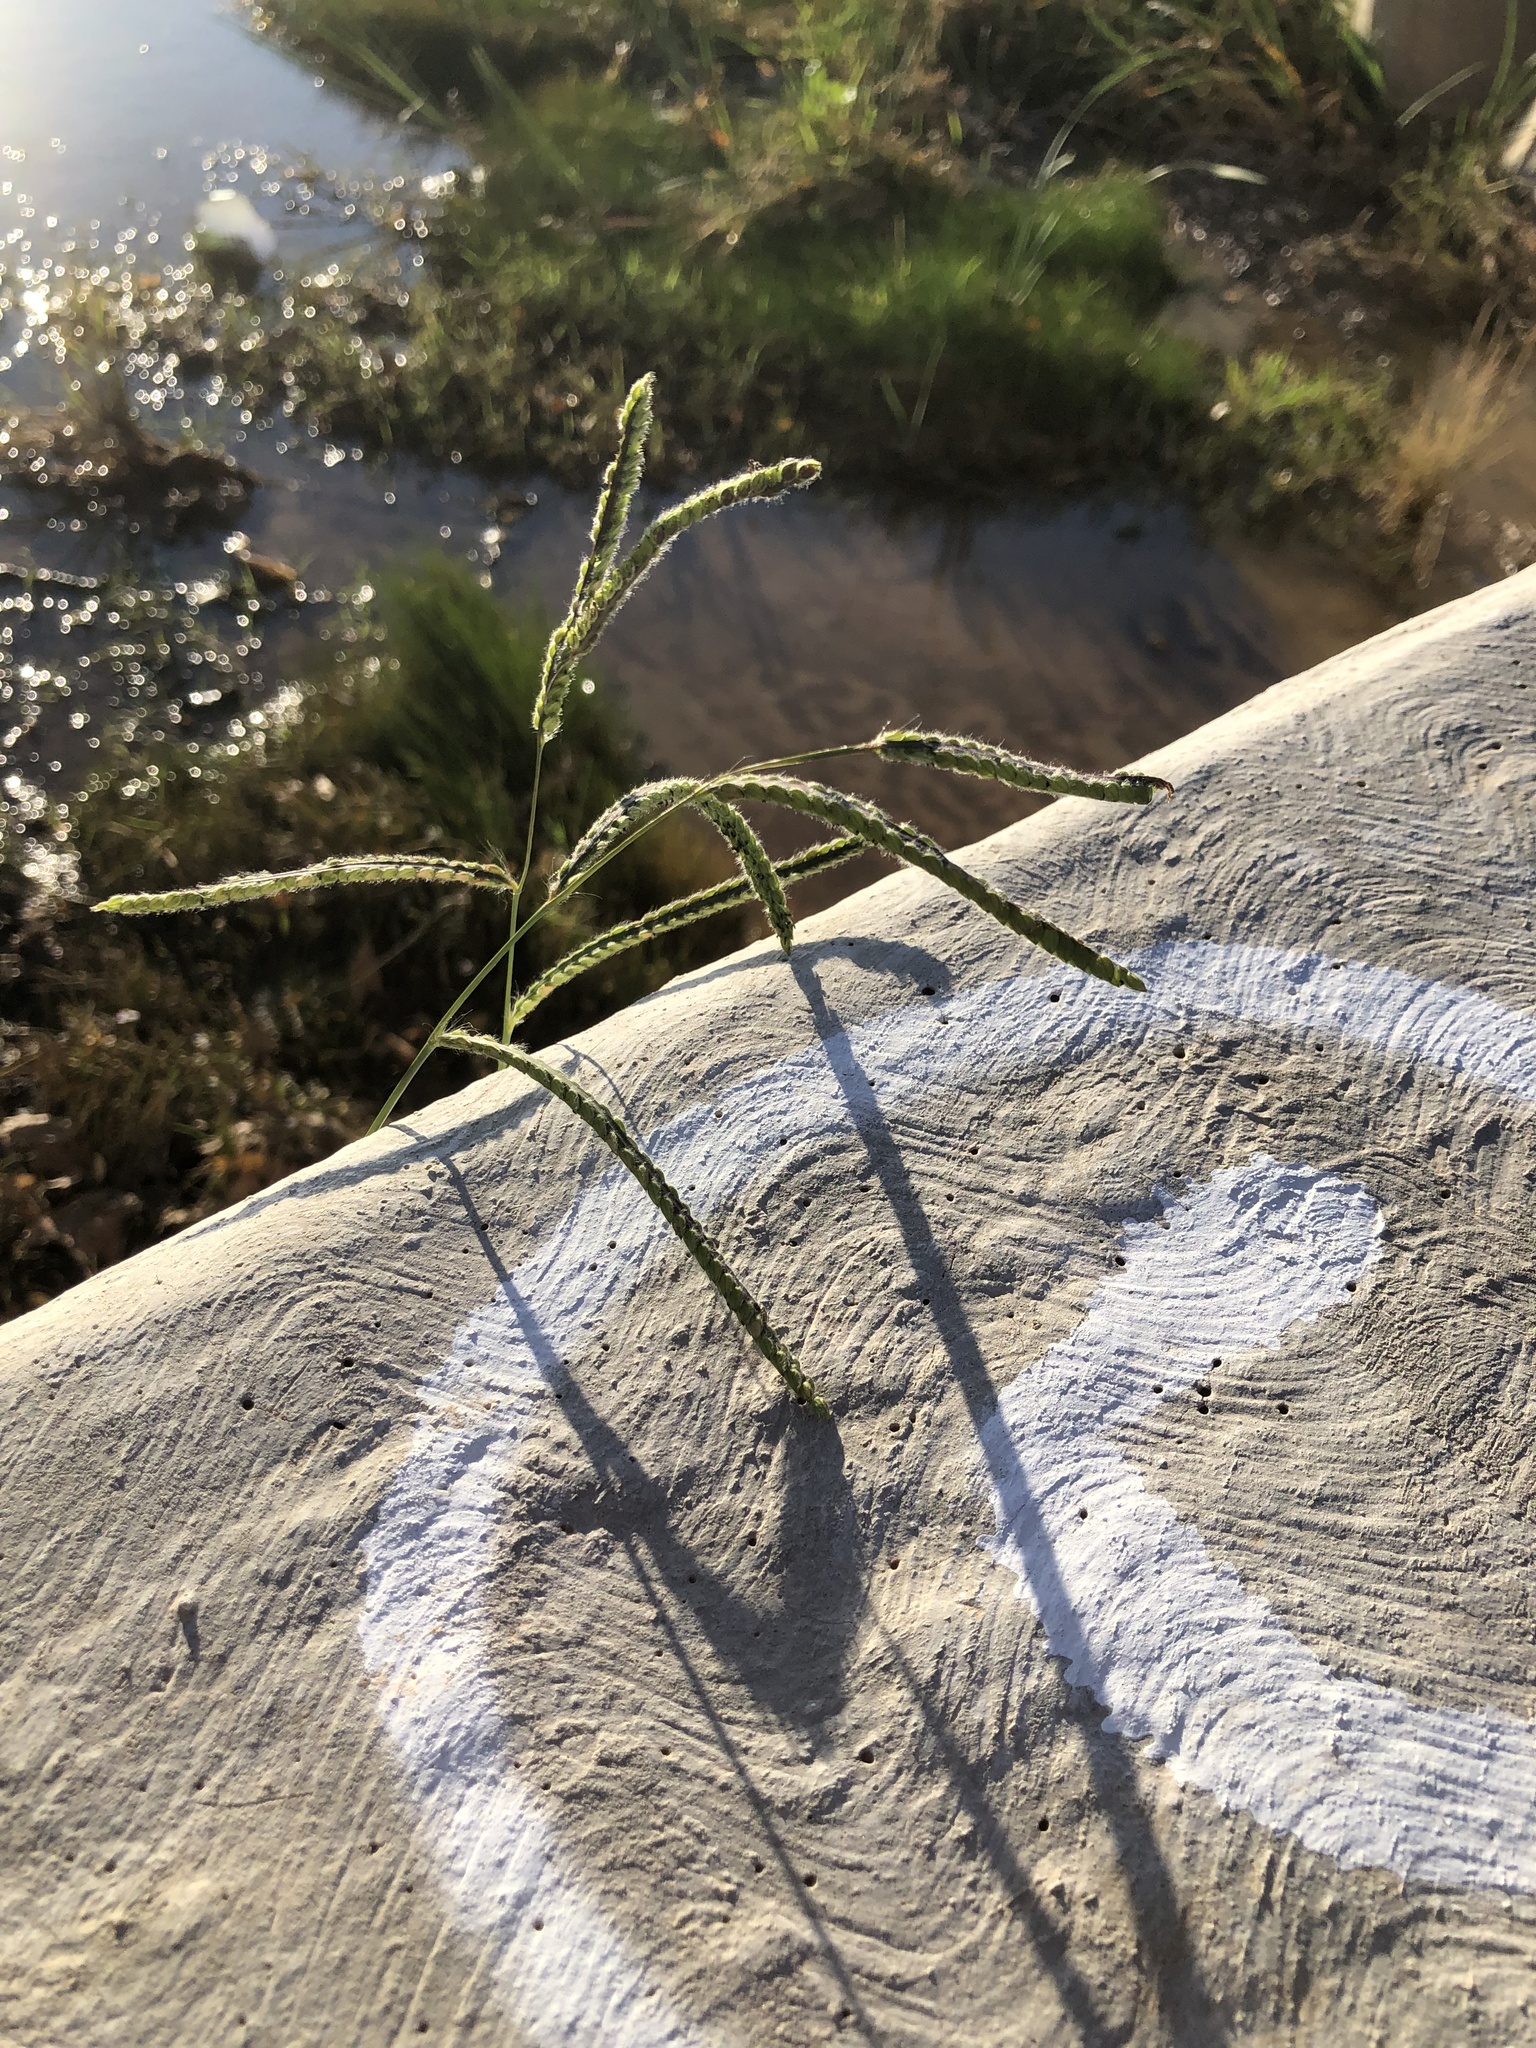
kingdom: Plantae
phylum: Tracheophyta
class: Liliopsida
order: Poales
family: Poaceae
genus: Paspalum
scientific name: Paspalum dilatatum
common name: Dallisgrass
